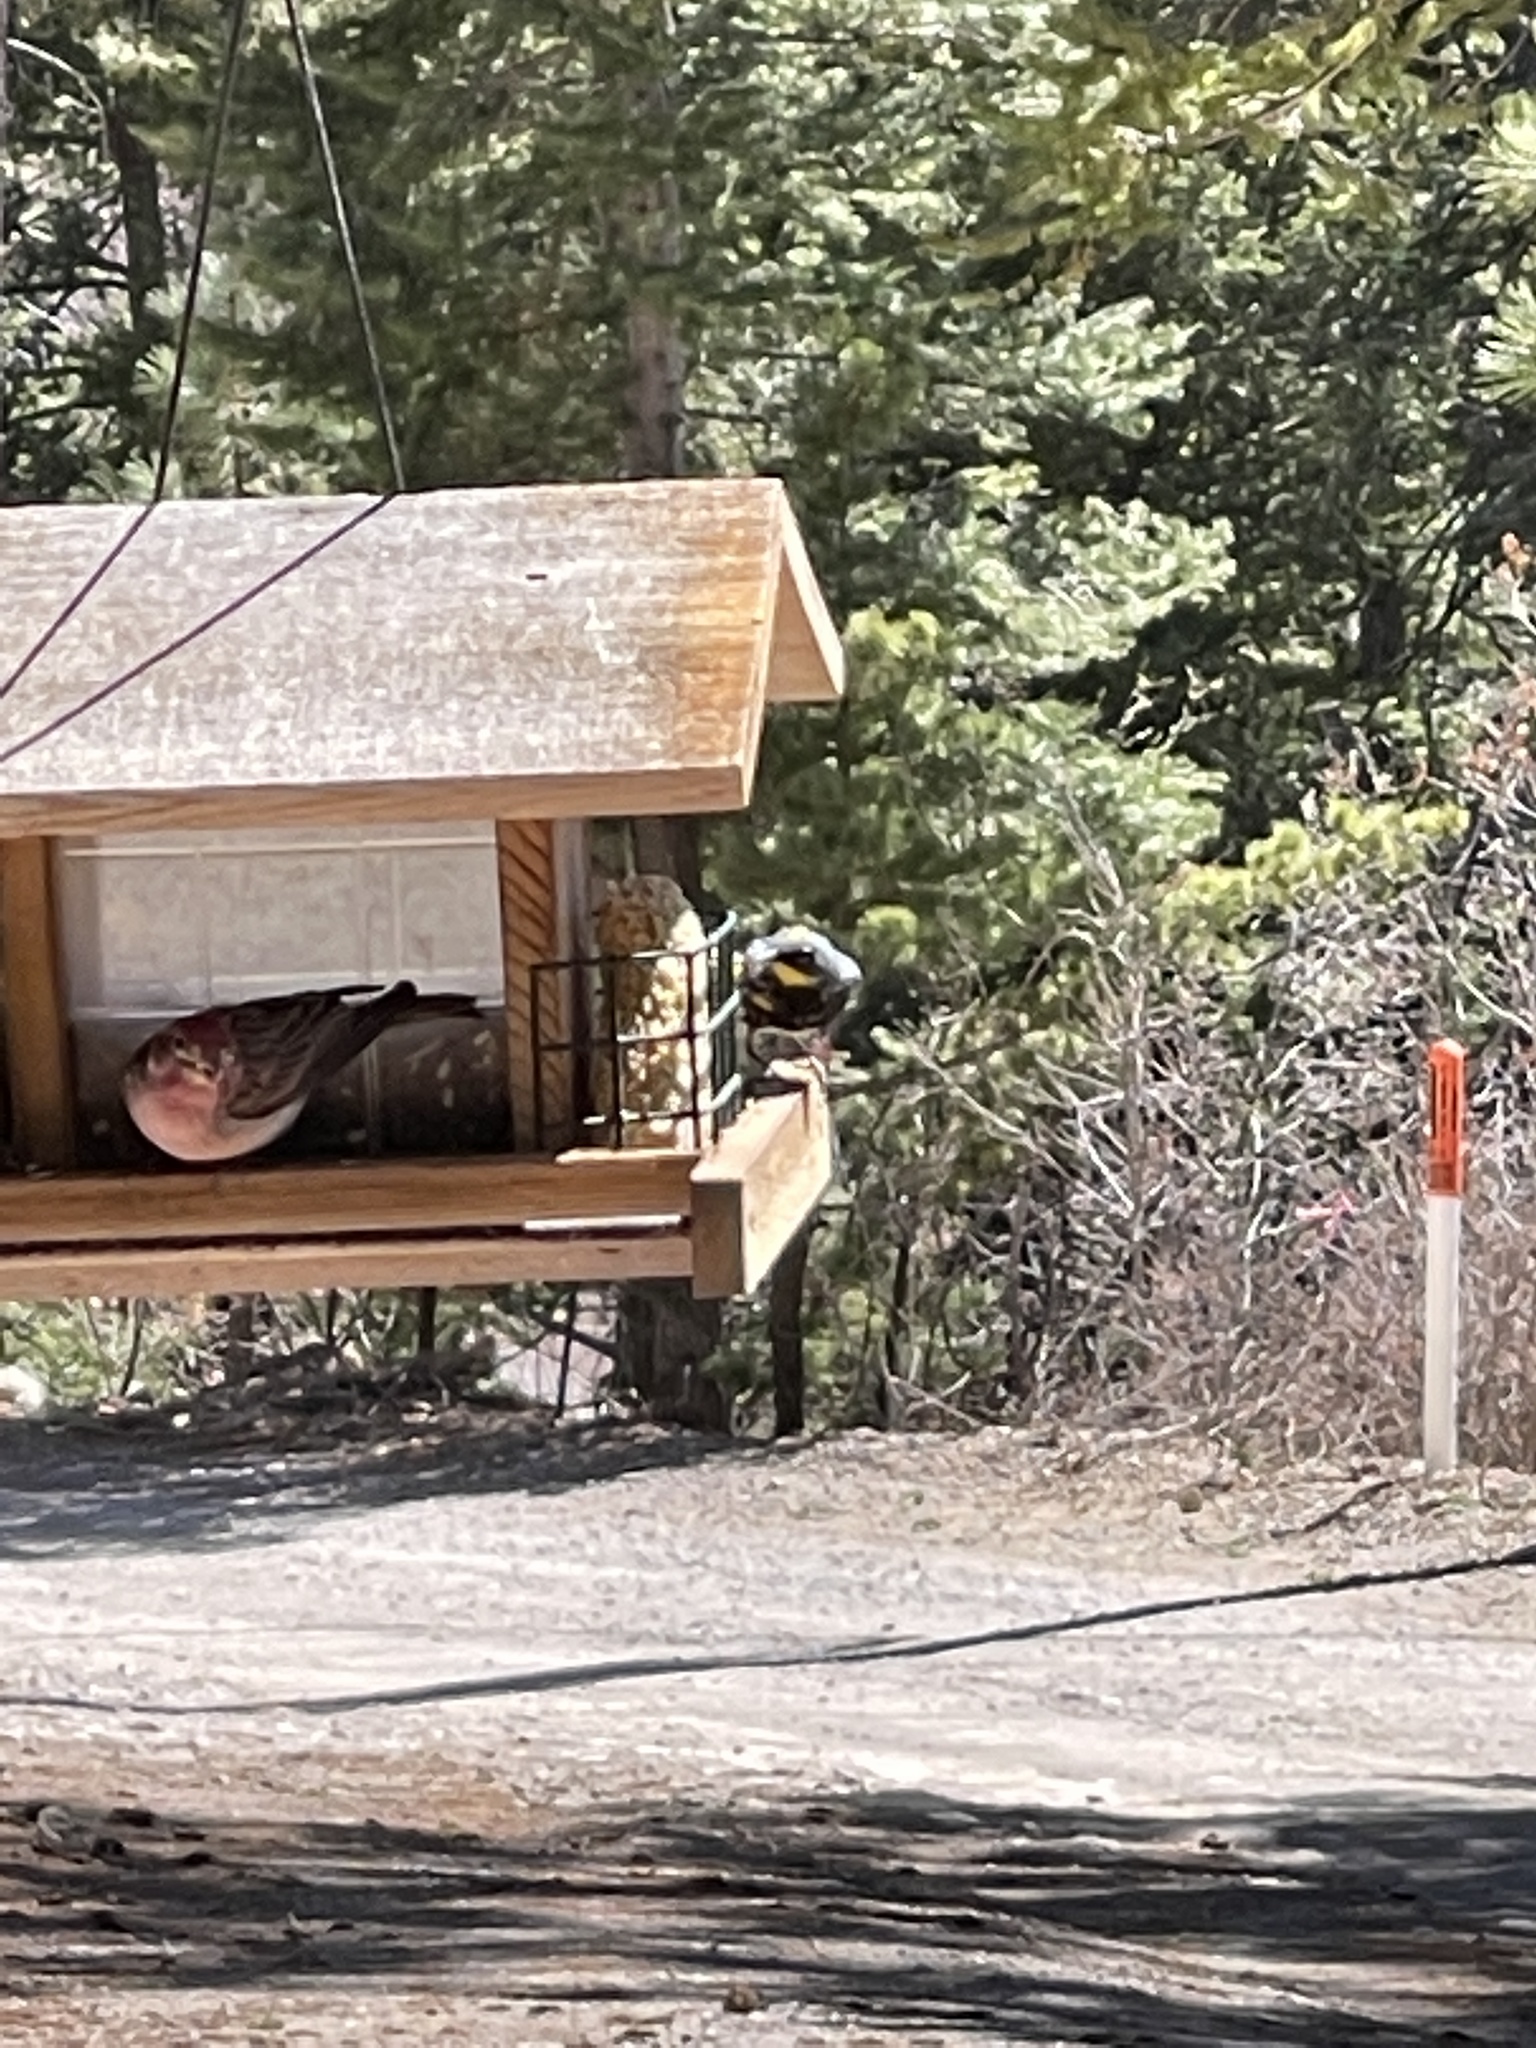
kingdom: Animalia
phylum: Chordata
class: Aves
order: Passeriformes
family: Parulidae
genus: Setophaga
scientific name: Setophaga coronata
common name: Myrtle warbler
